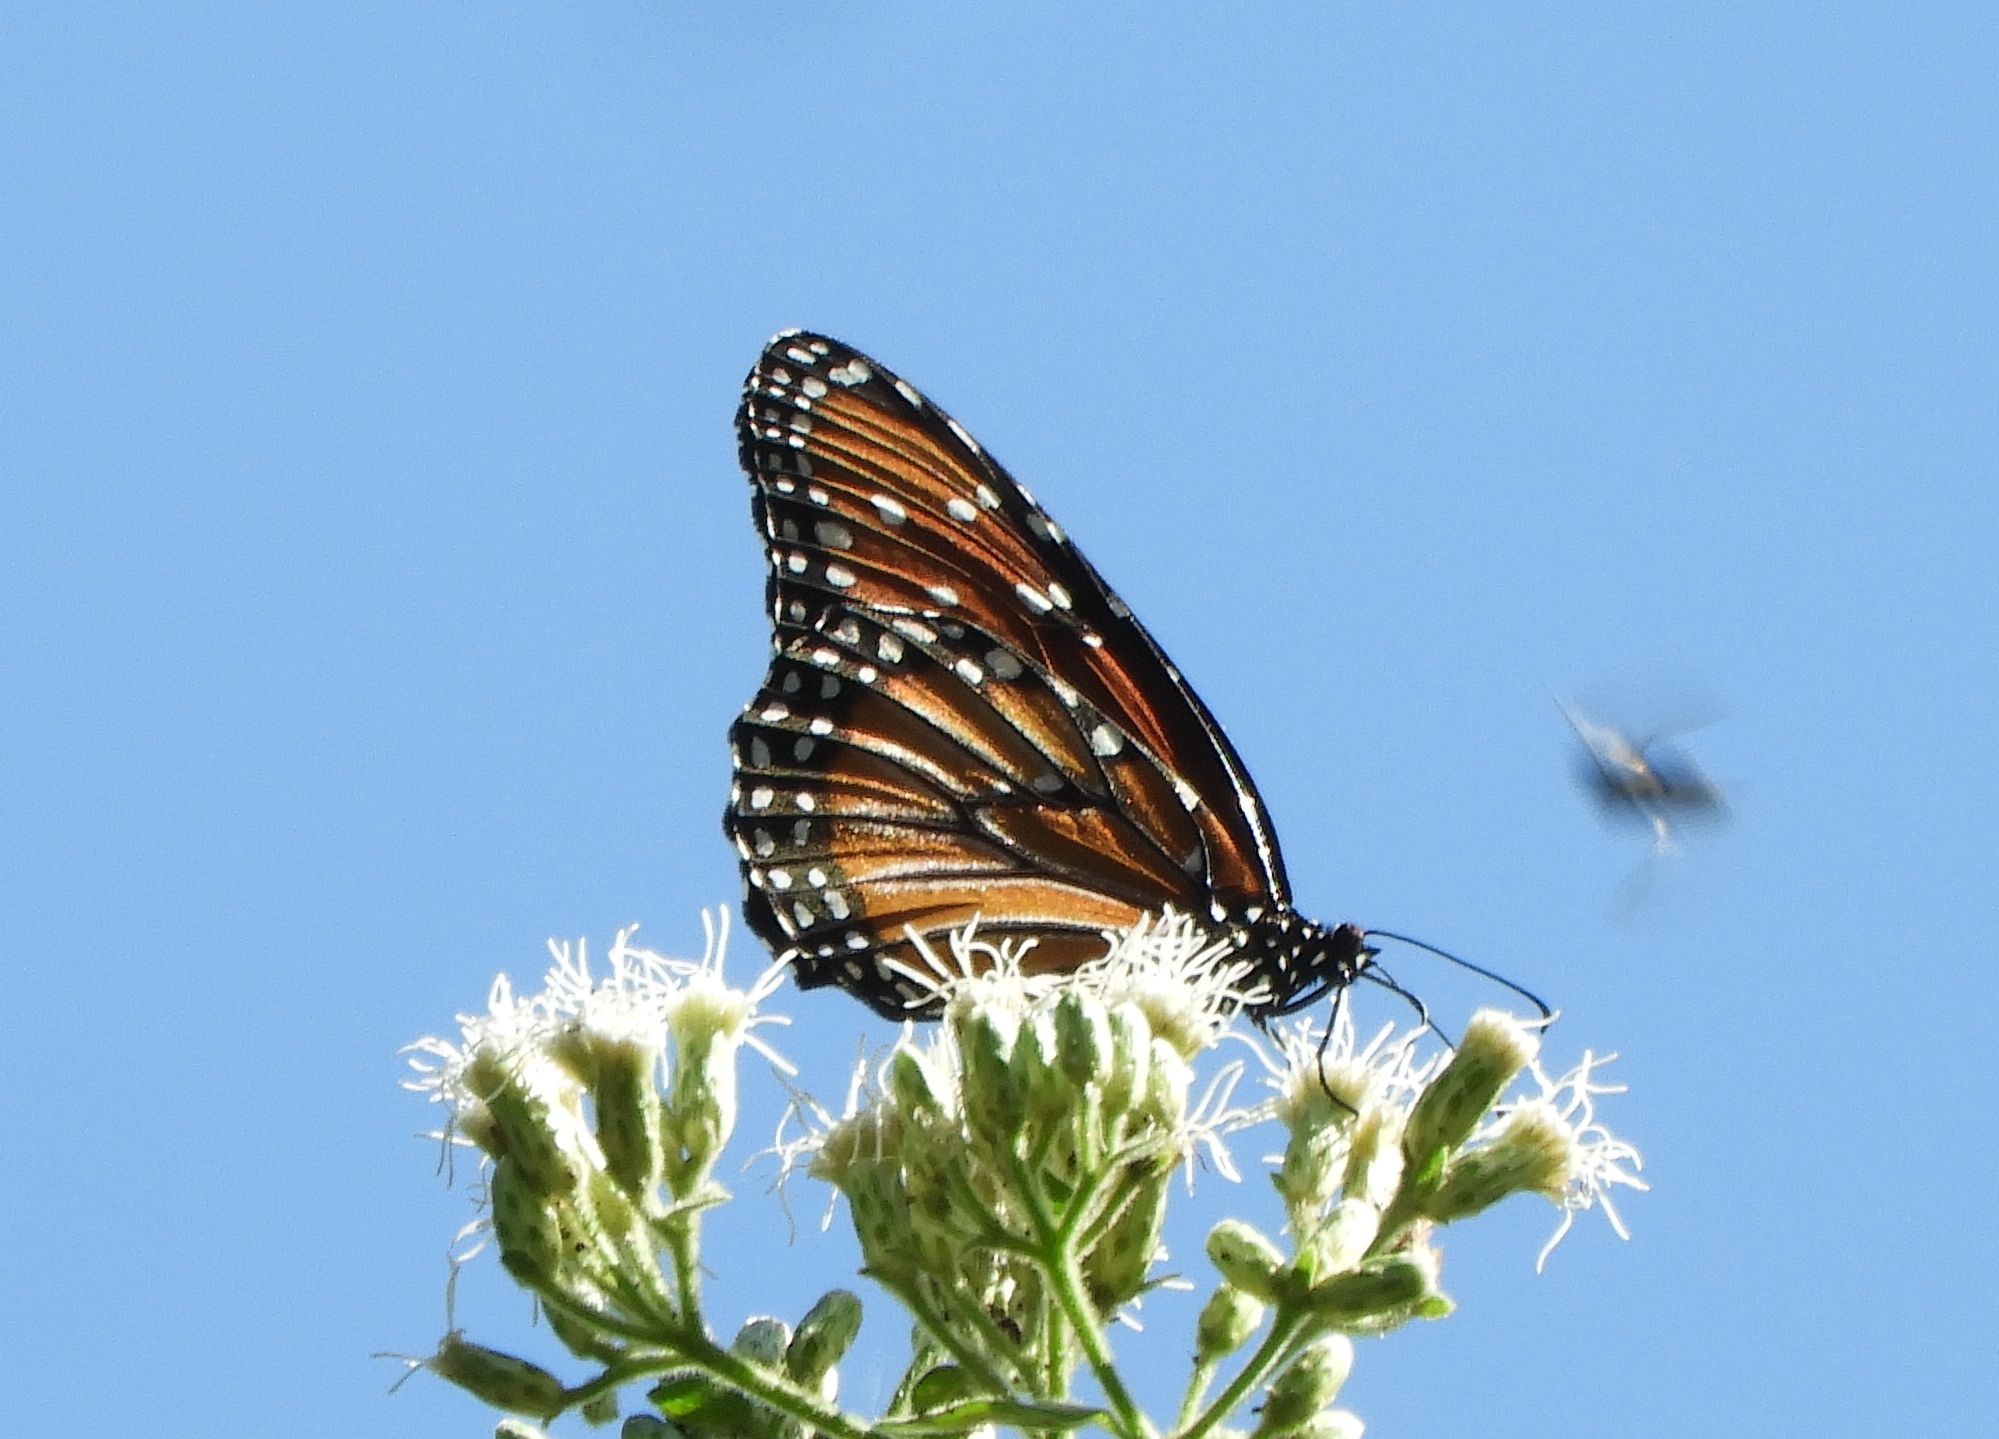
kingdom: Animalia
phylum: Arthropoda
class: Insecta
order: Lepidoptera
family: Nymphalidae
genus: Danaus
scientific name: Danaus gilippus
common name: Queen
